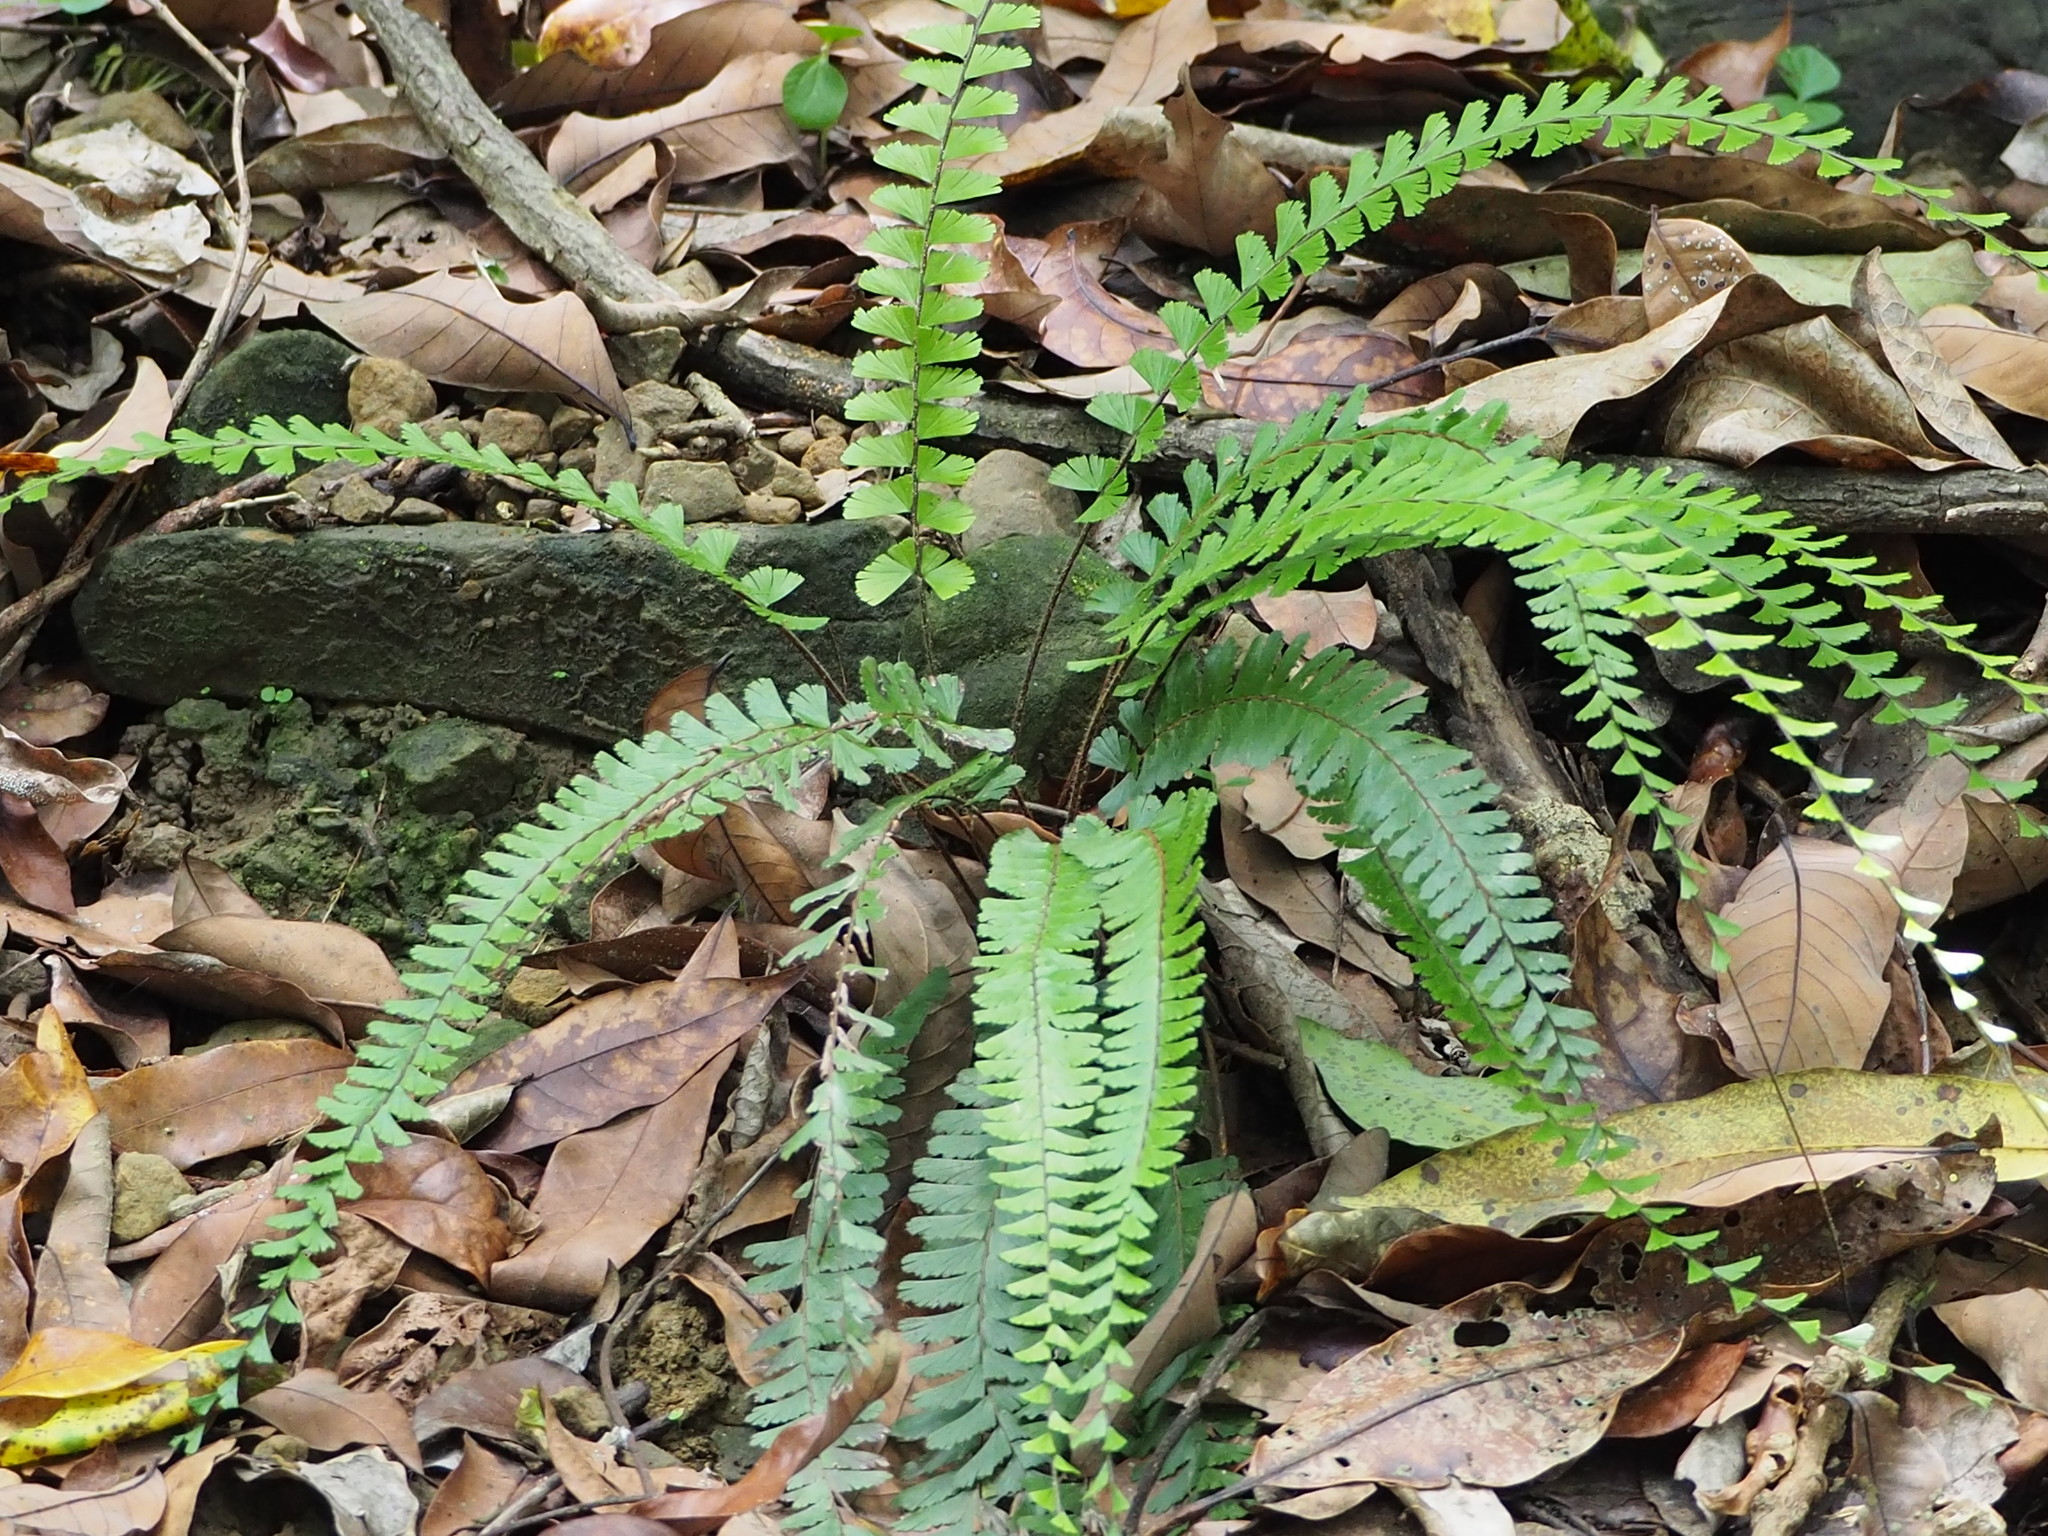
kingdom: Plantae
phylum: Tracheophyta
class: Polypodiopsida
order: Polypodiales
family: Pteridaceae
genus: Adiantum
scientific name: Adiantum ciliatum
